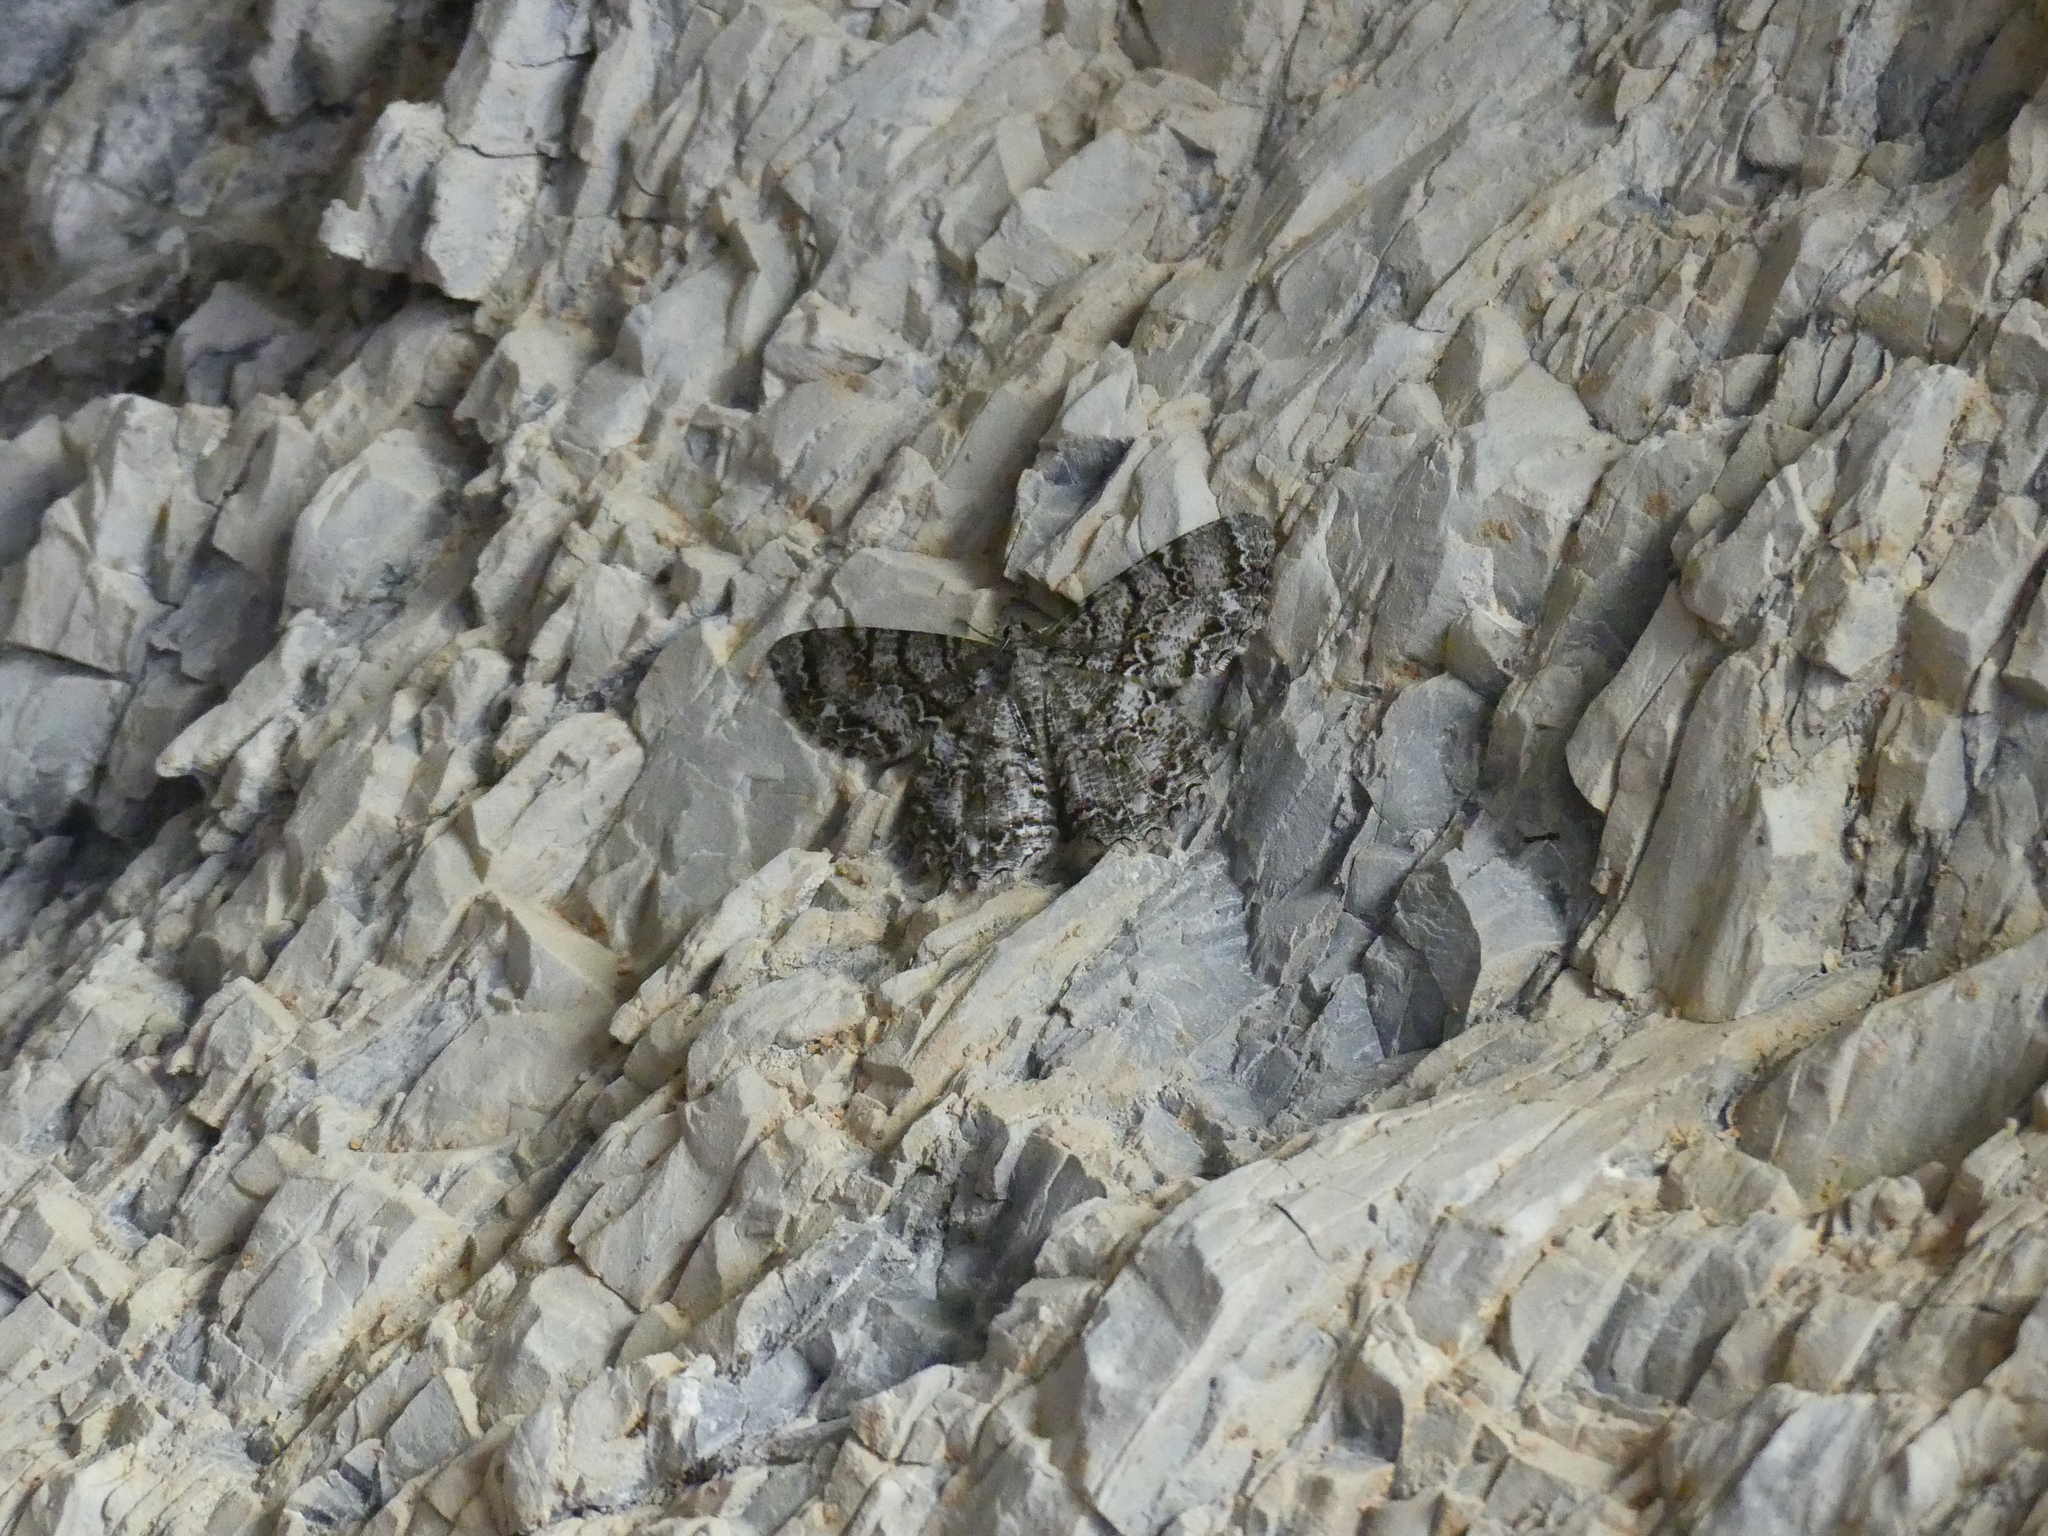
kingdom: Animalia
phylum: Arthropoda
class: Insecta
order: Lepidoptera
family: Geometridae
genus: Epimecis
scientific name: Epimecis hortaria
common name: Tulip-tree beauty
